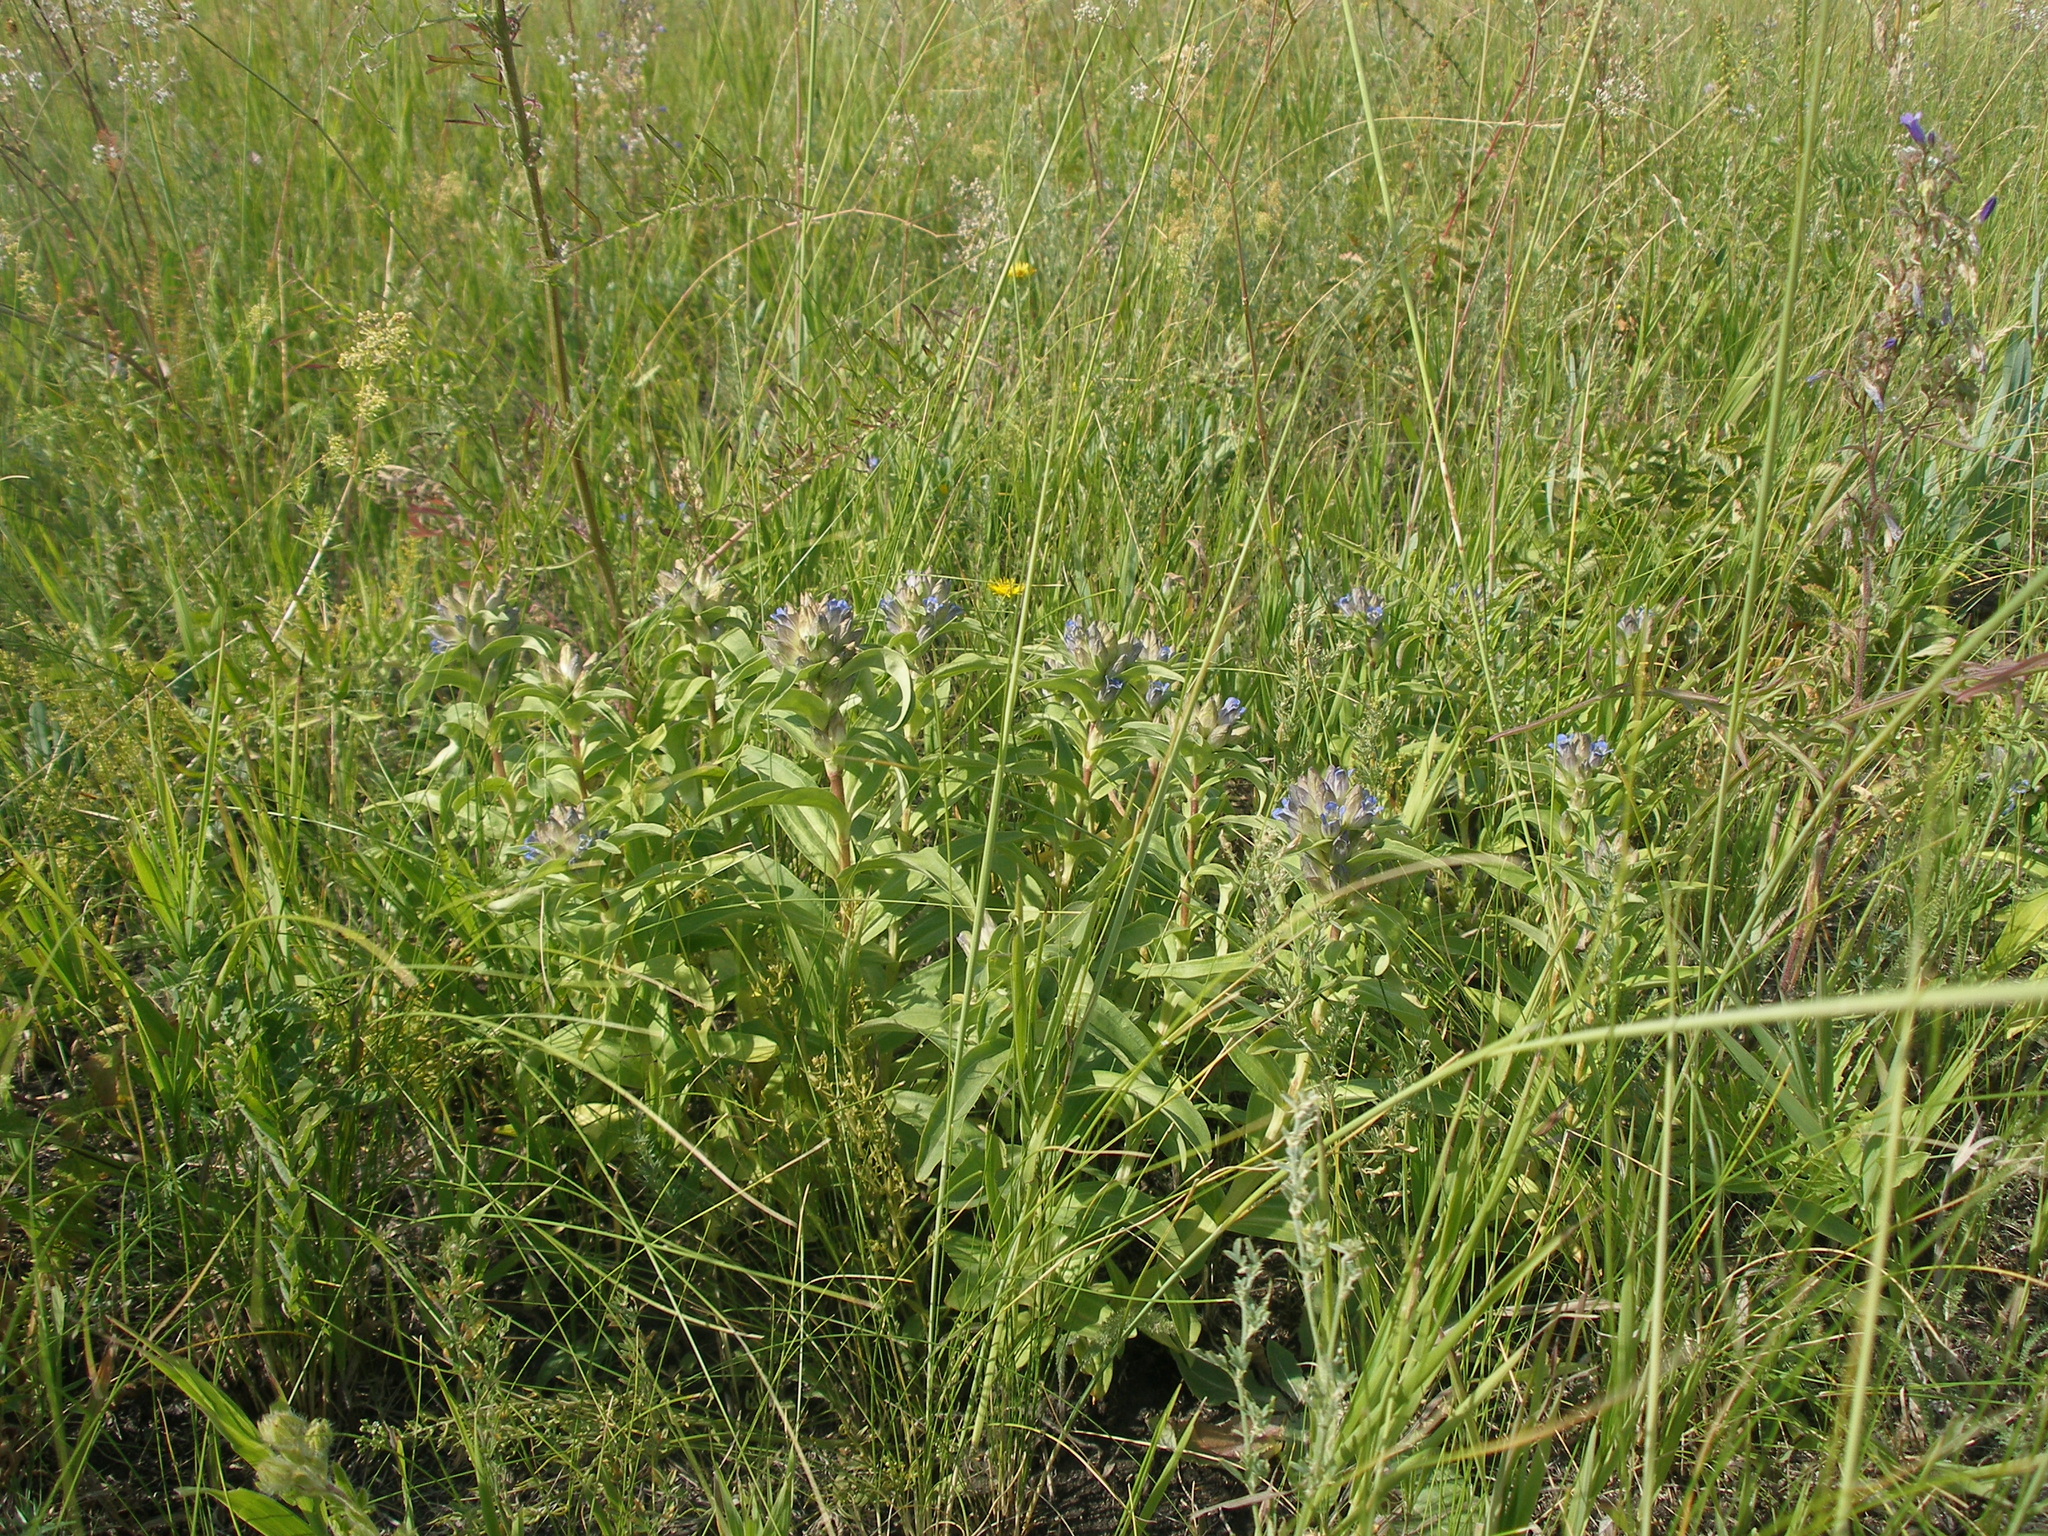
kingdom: Plantae
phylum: Tracheophyta
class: Magnoliopsida
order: Gentianales
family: Gentianaceae
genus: Gentiana
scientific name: Gentiana cruciata
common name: Cross gentian
